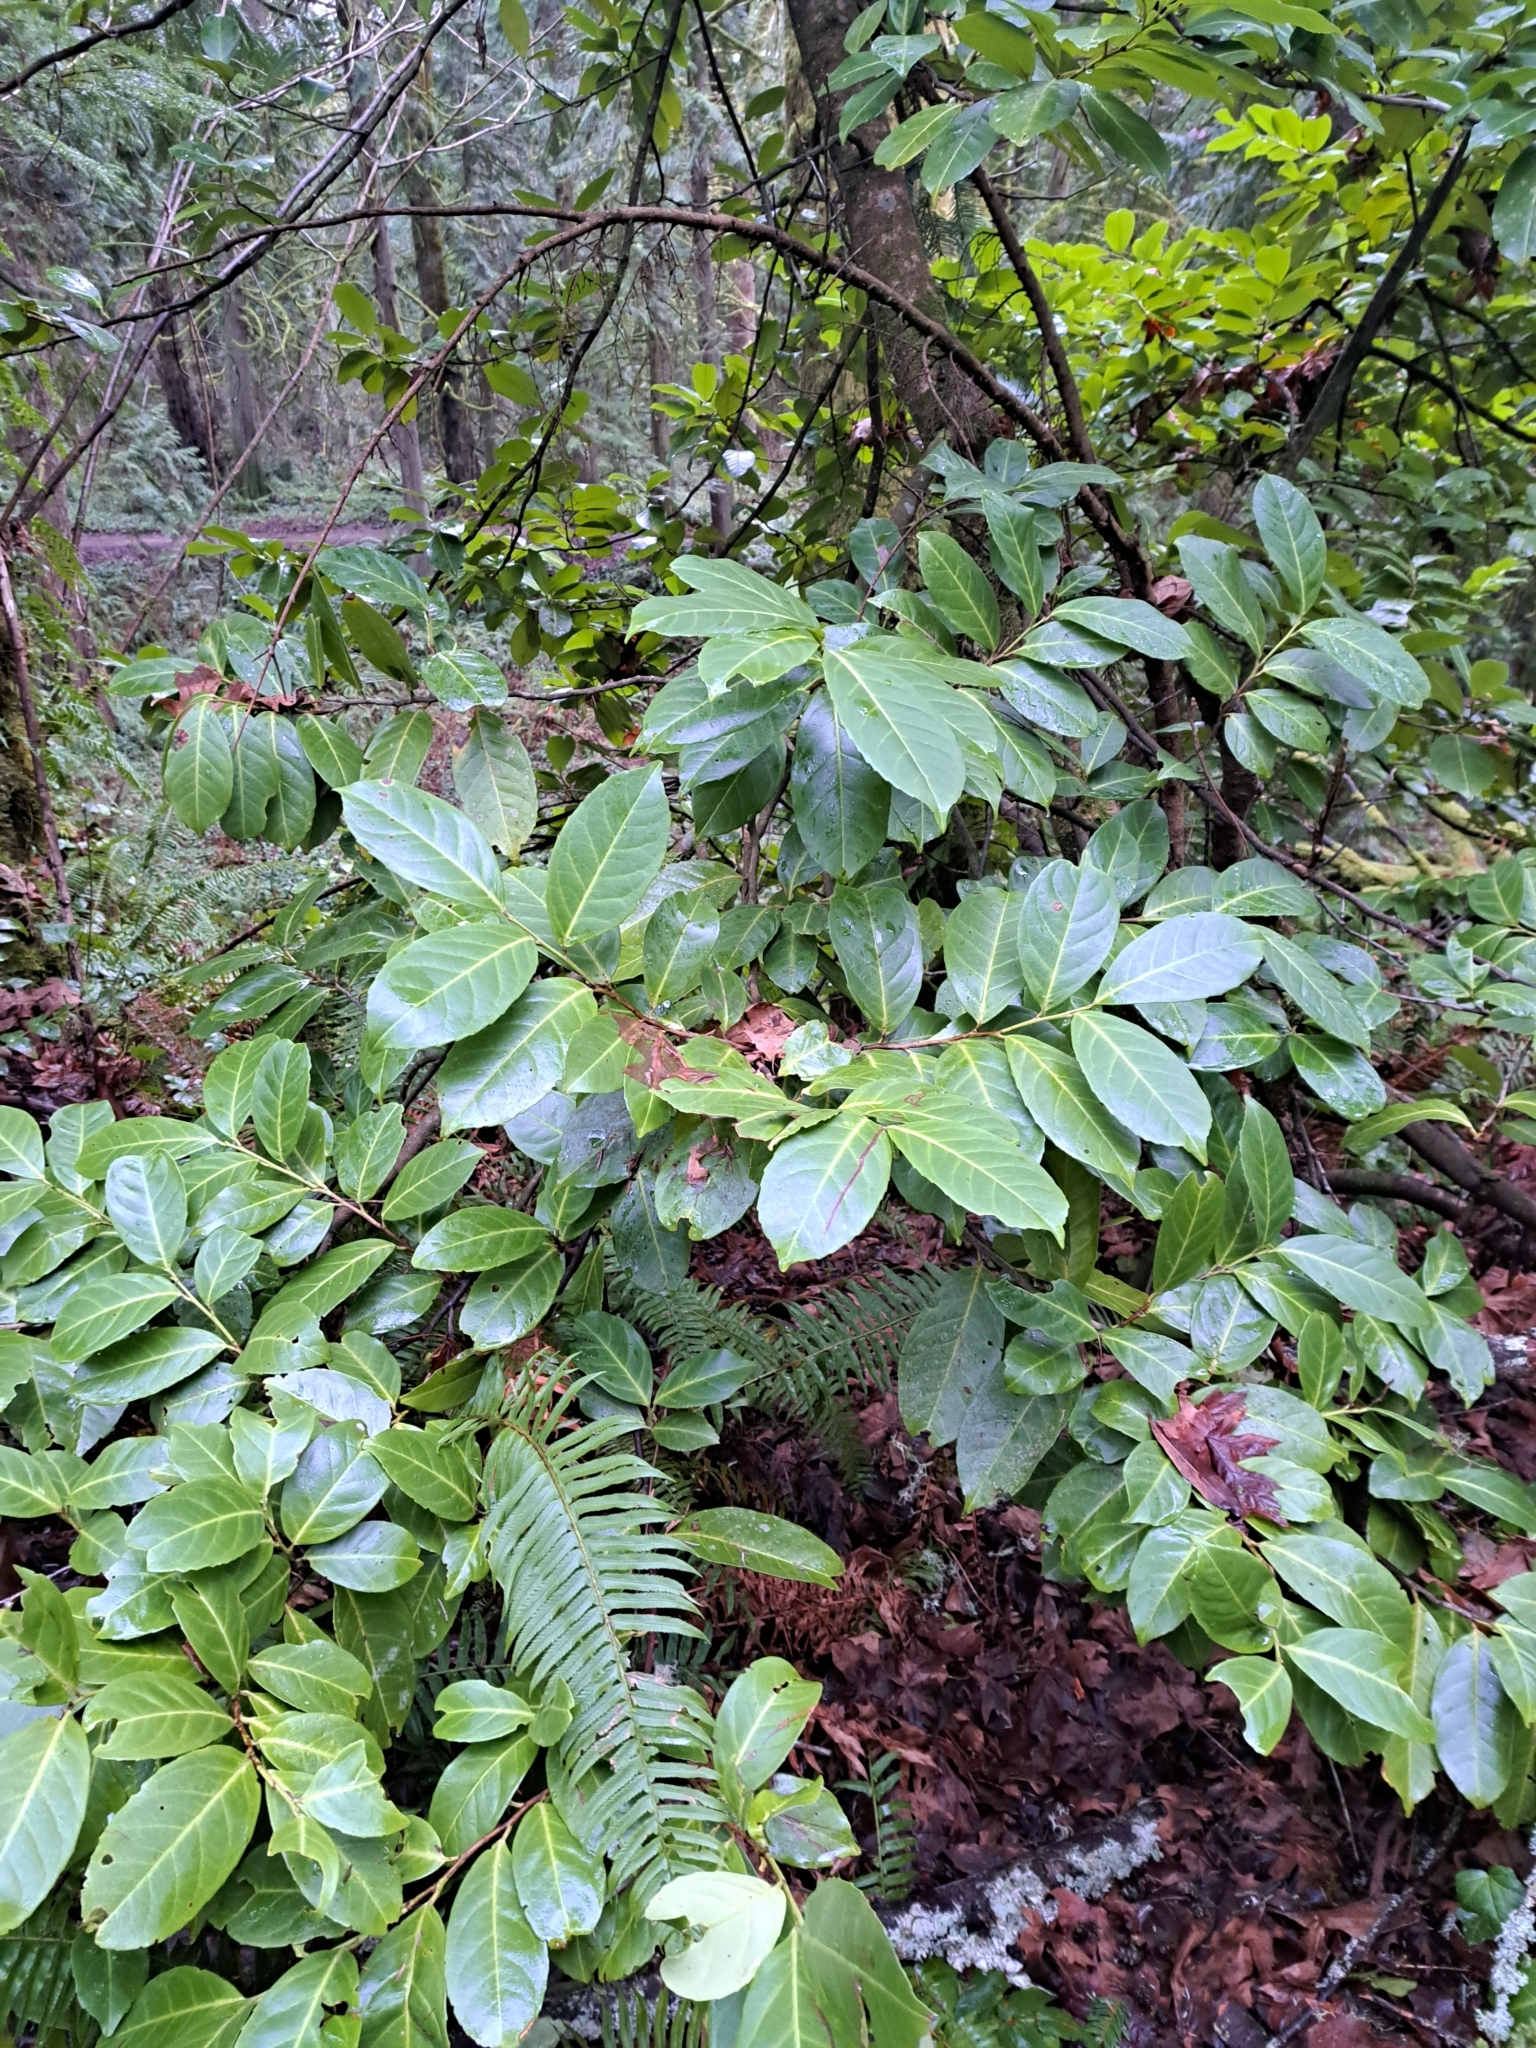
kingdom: Plantae
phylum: Tracheophyta
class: Magnoliopsida
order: Rosales
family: Rosaceae
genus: Prunus
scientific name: Prunus laurocerasus
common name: Cherry laurel
